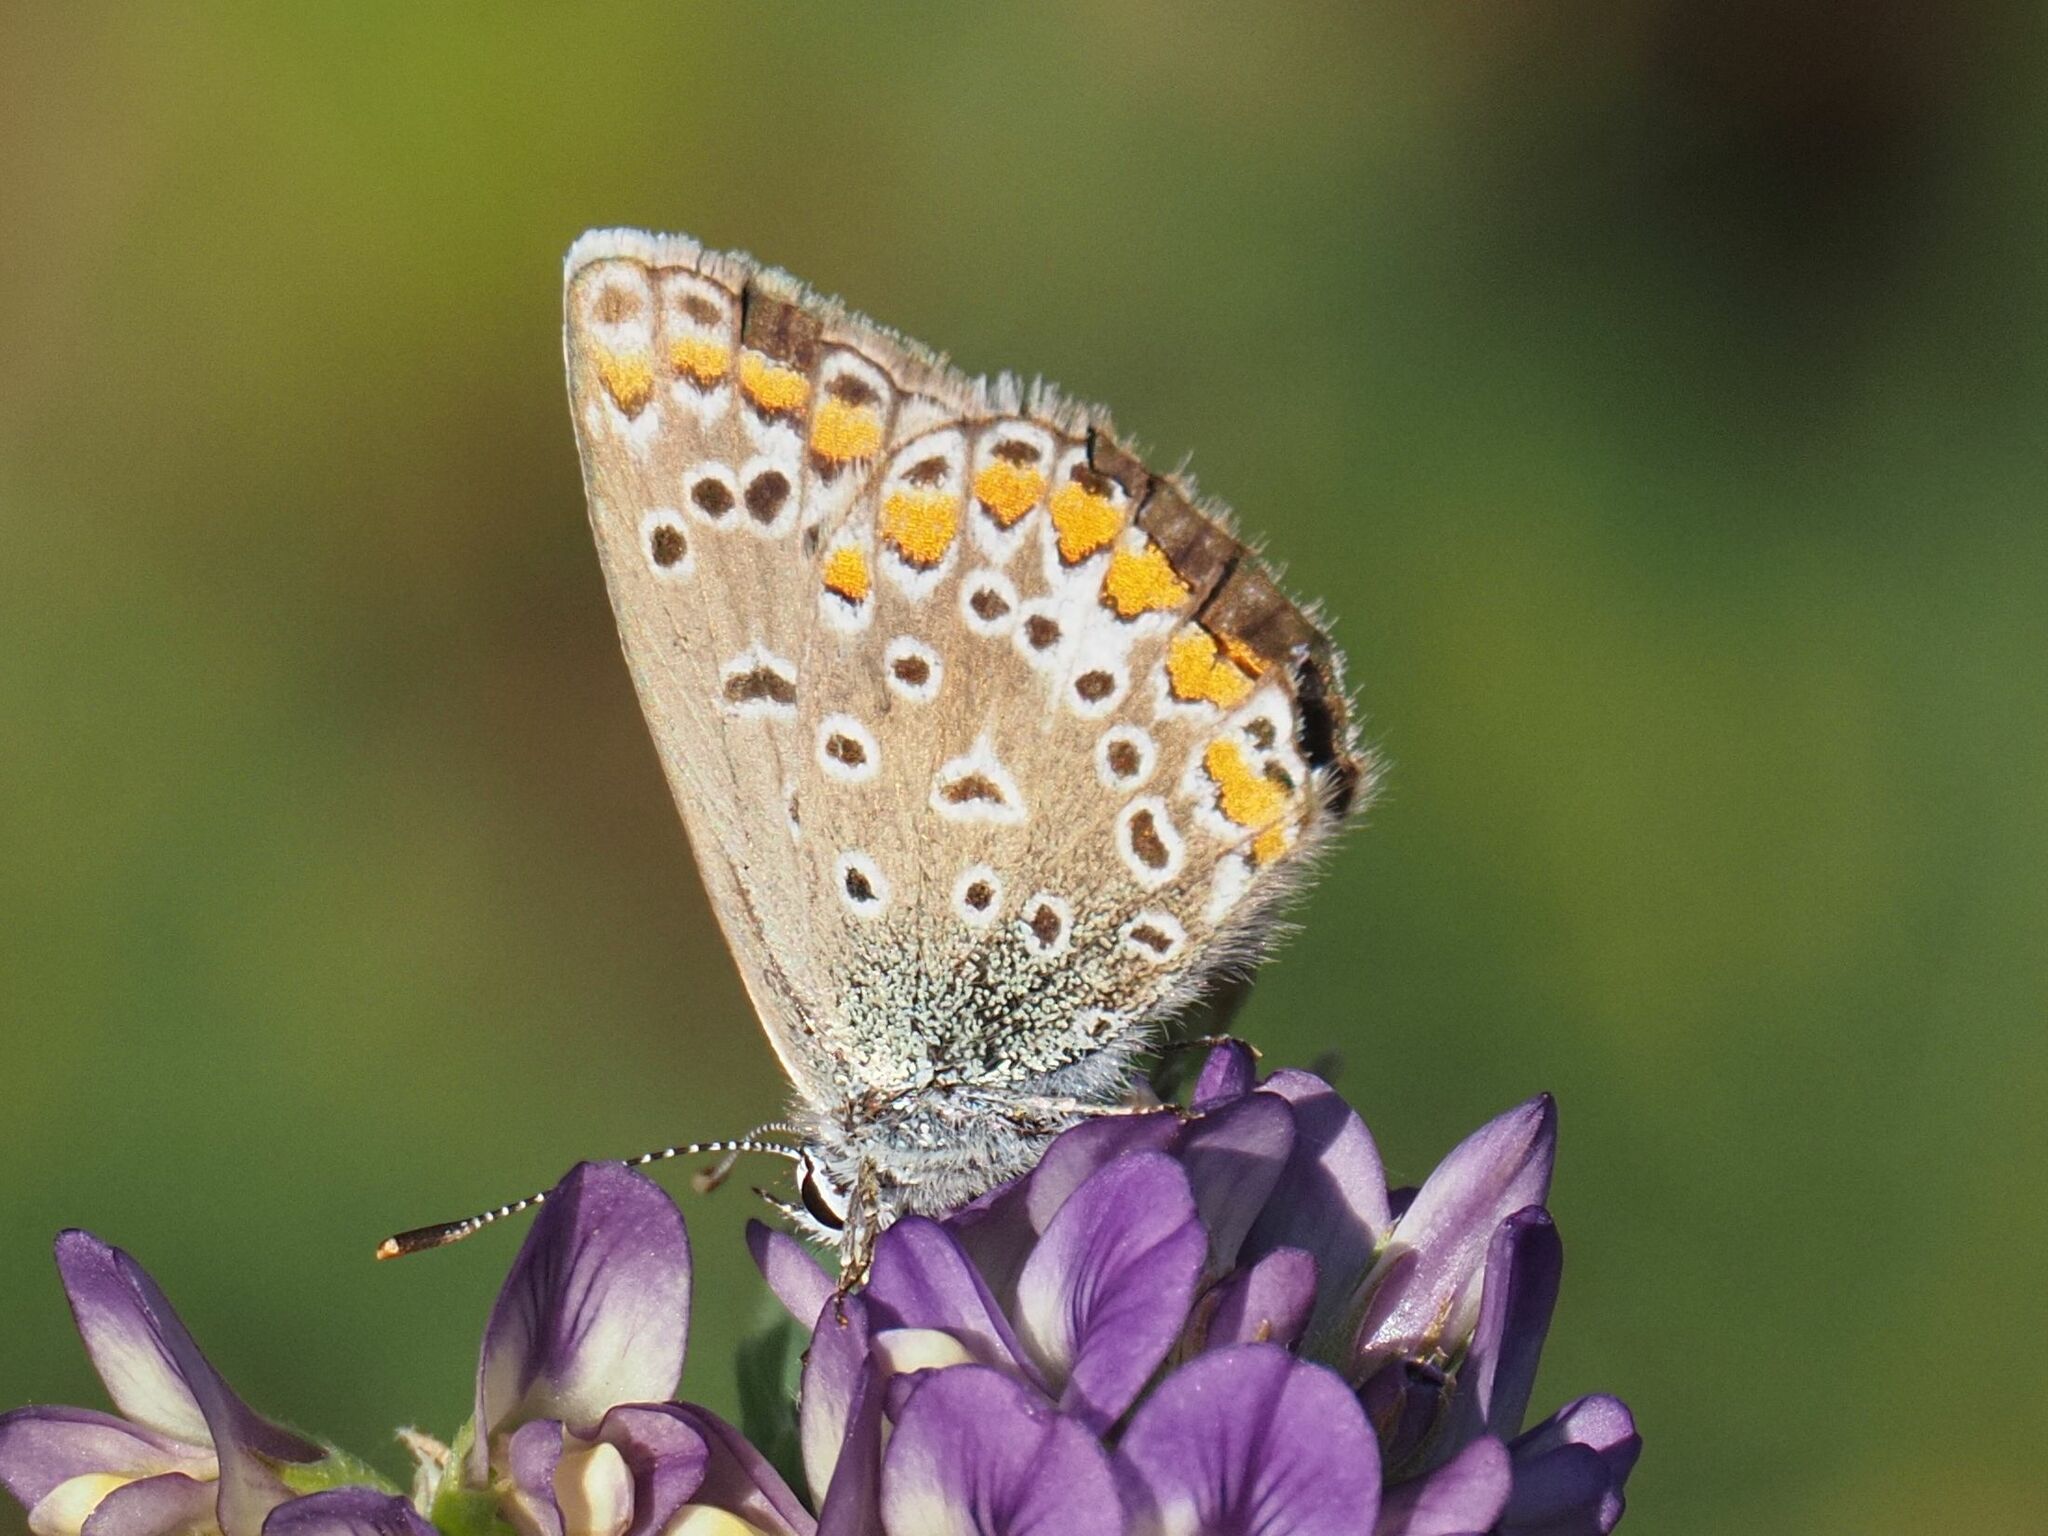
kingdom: Animalia
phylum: Arthropoda
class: Insecta
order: Lepidoptera
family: Lycaenidae
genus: Polyommatus
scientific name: Polyommatus icarus
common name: Common blue
